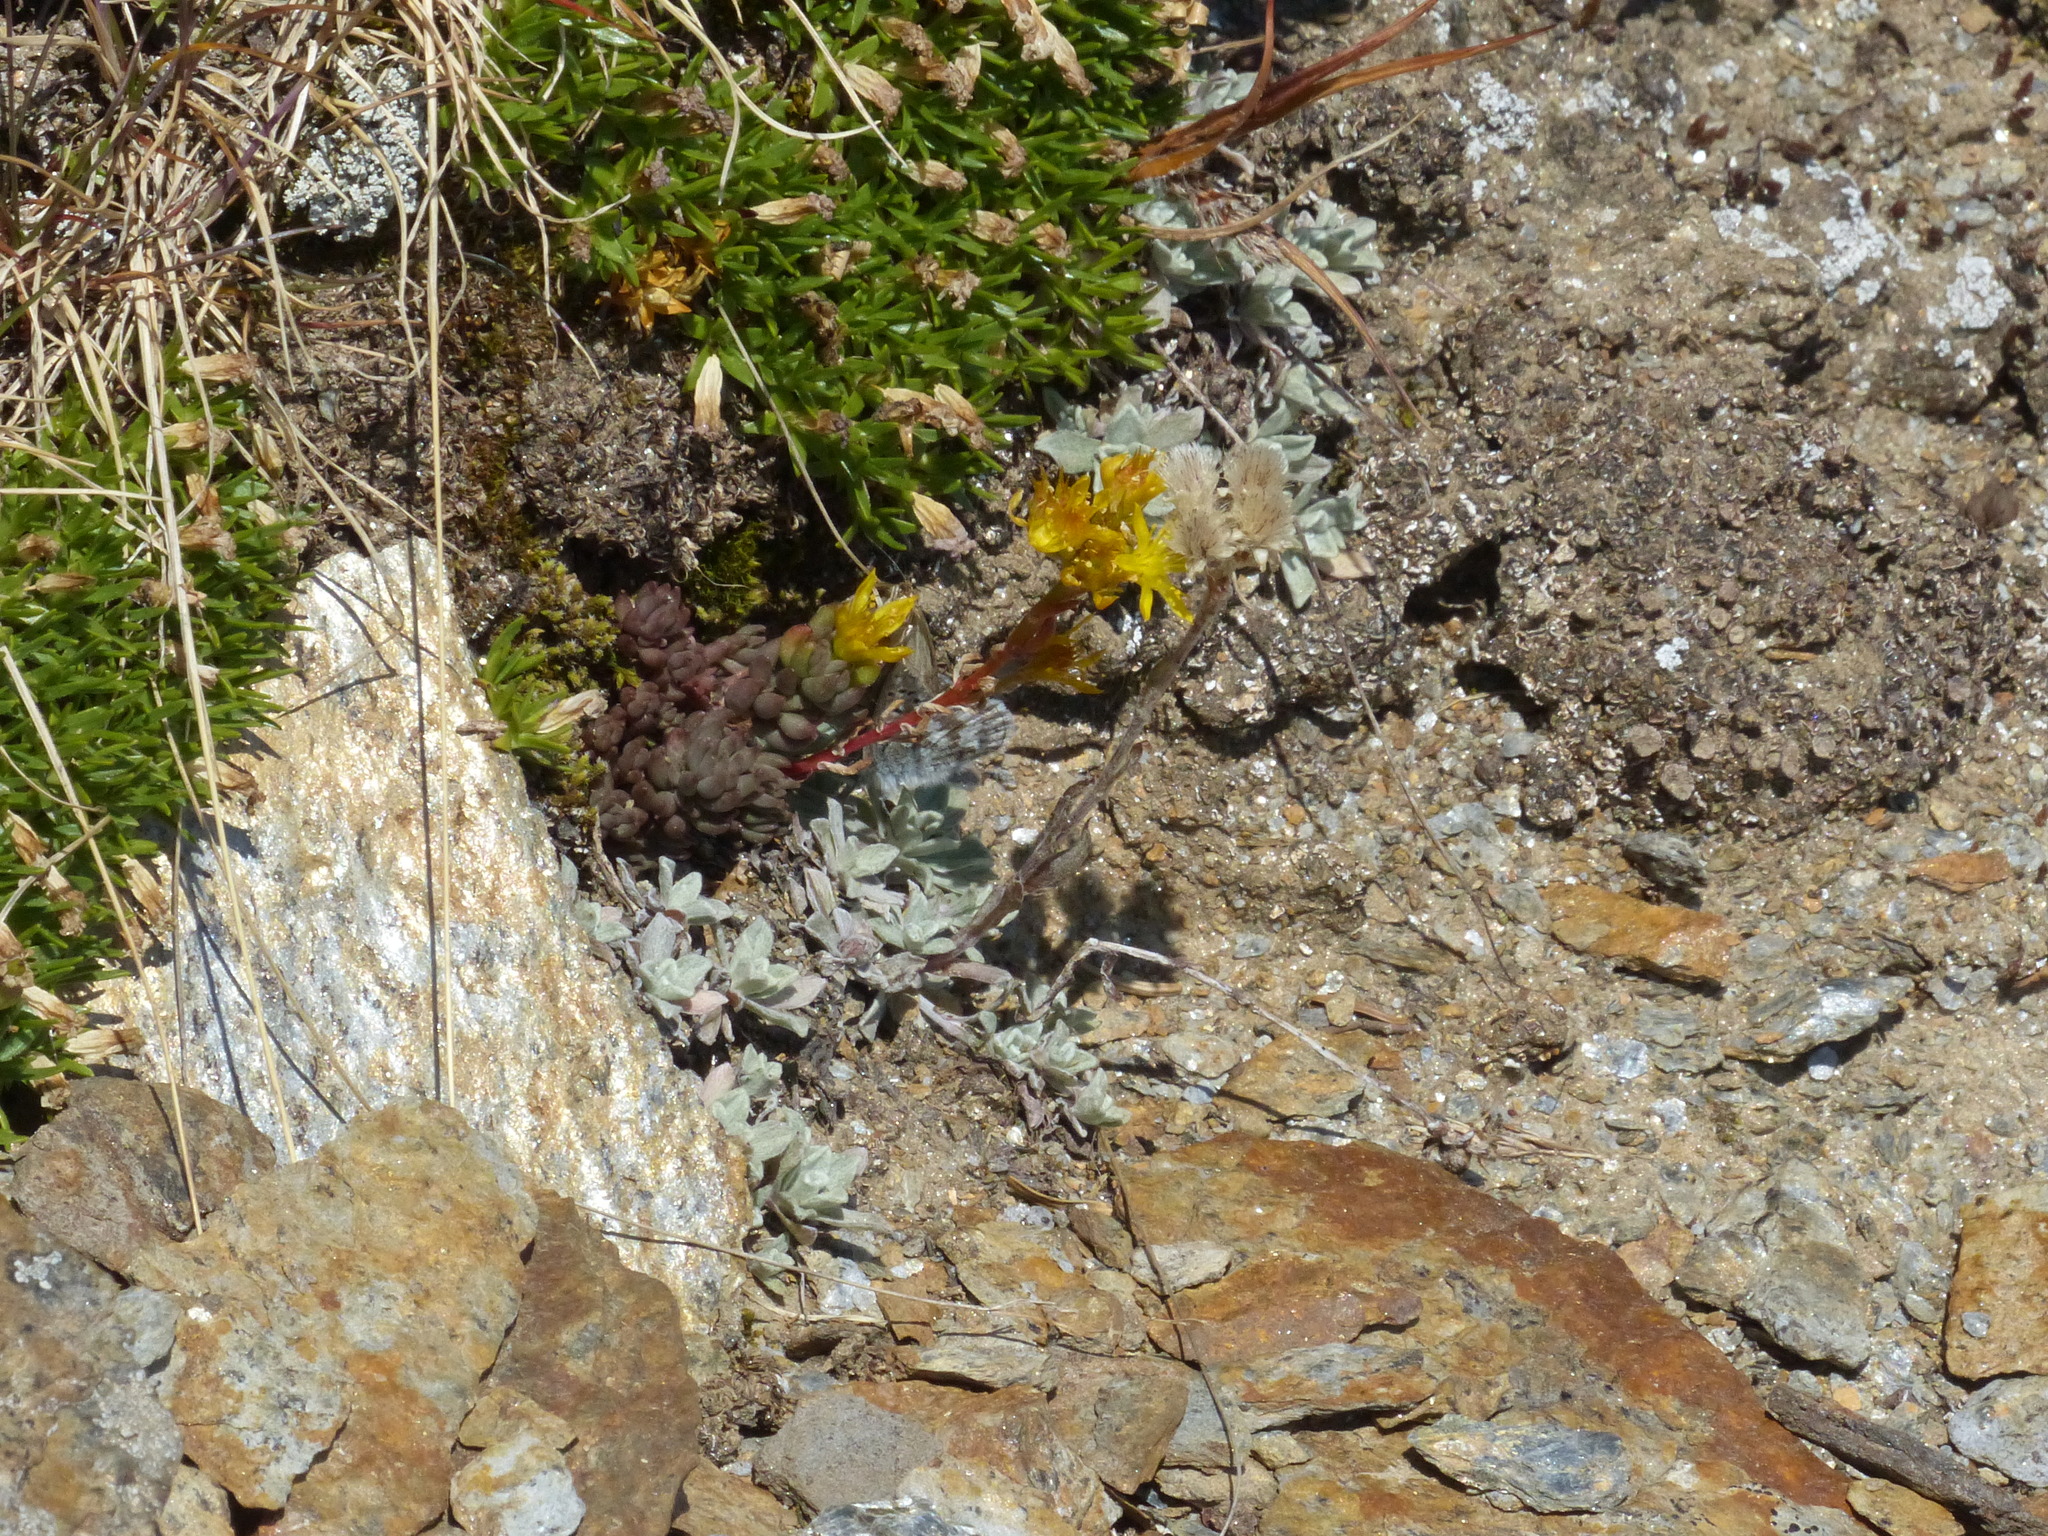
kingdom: Plantae
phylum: Tracheophyta
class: Magnoliopsida
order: Saxifragales
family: Crassulaceae
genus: Sedum
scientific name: Sedum lanceolatum
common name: Common stonecrop
